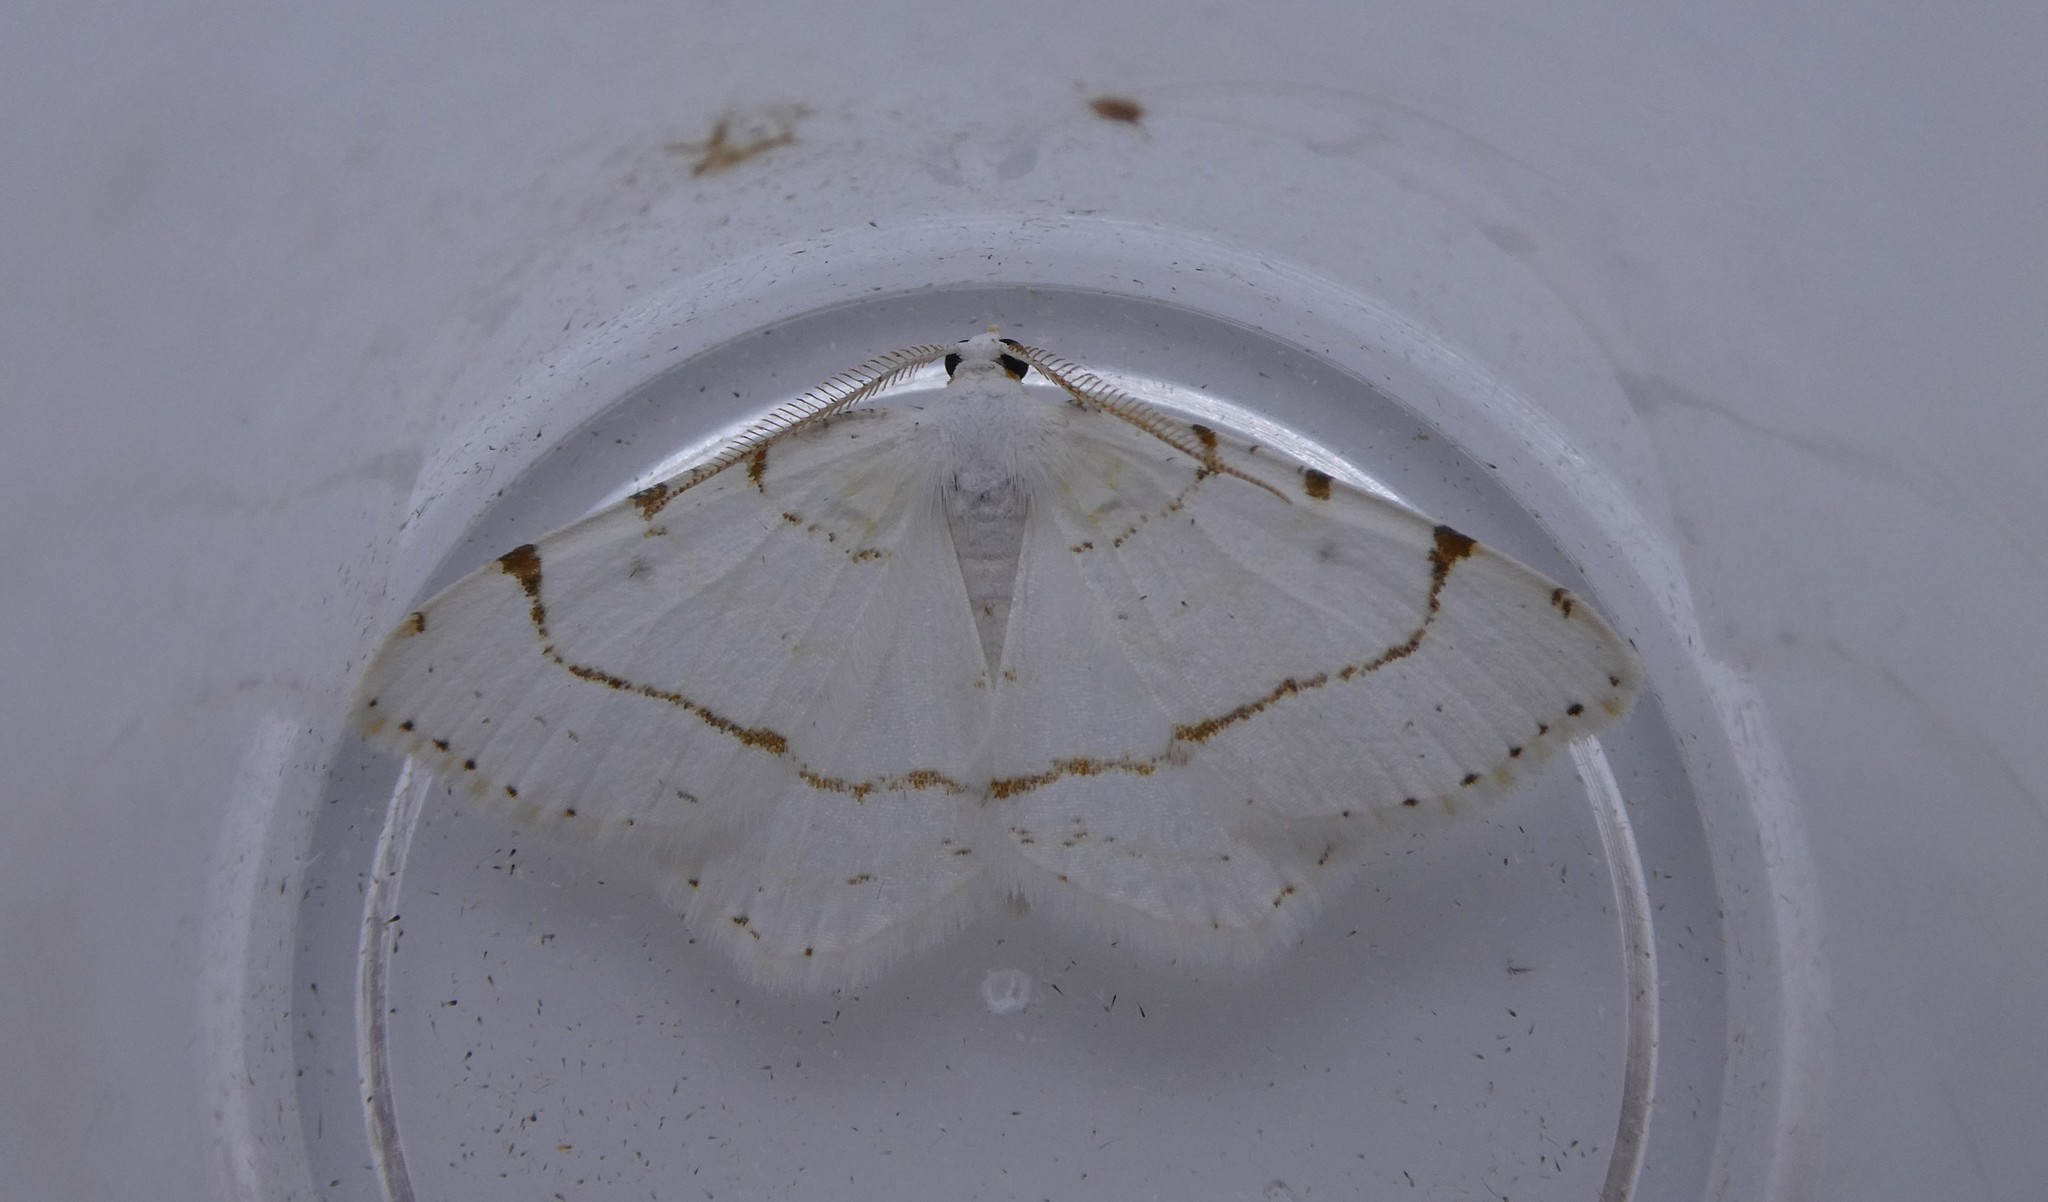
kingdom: Animalia
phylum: Arthropoda
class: Insecta
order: Lepidoptera
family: Geometridae
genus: Macaria
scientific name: Macaria pustularia
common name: Lesser maple spanworm moth
